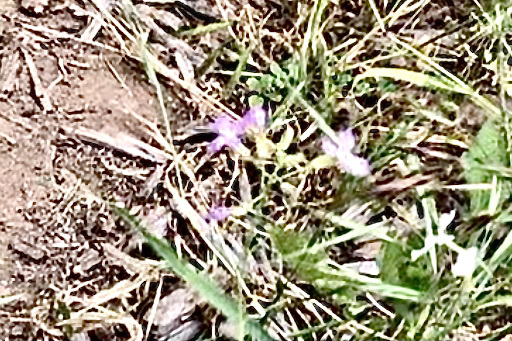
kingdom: Plantae
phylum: Tracheophyta
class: Magnoliopsida
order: Brassicales
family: Brassicaceae
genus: Raphanus
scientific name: Raphanus sativus
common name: Cultivated radish
